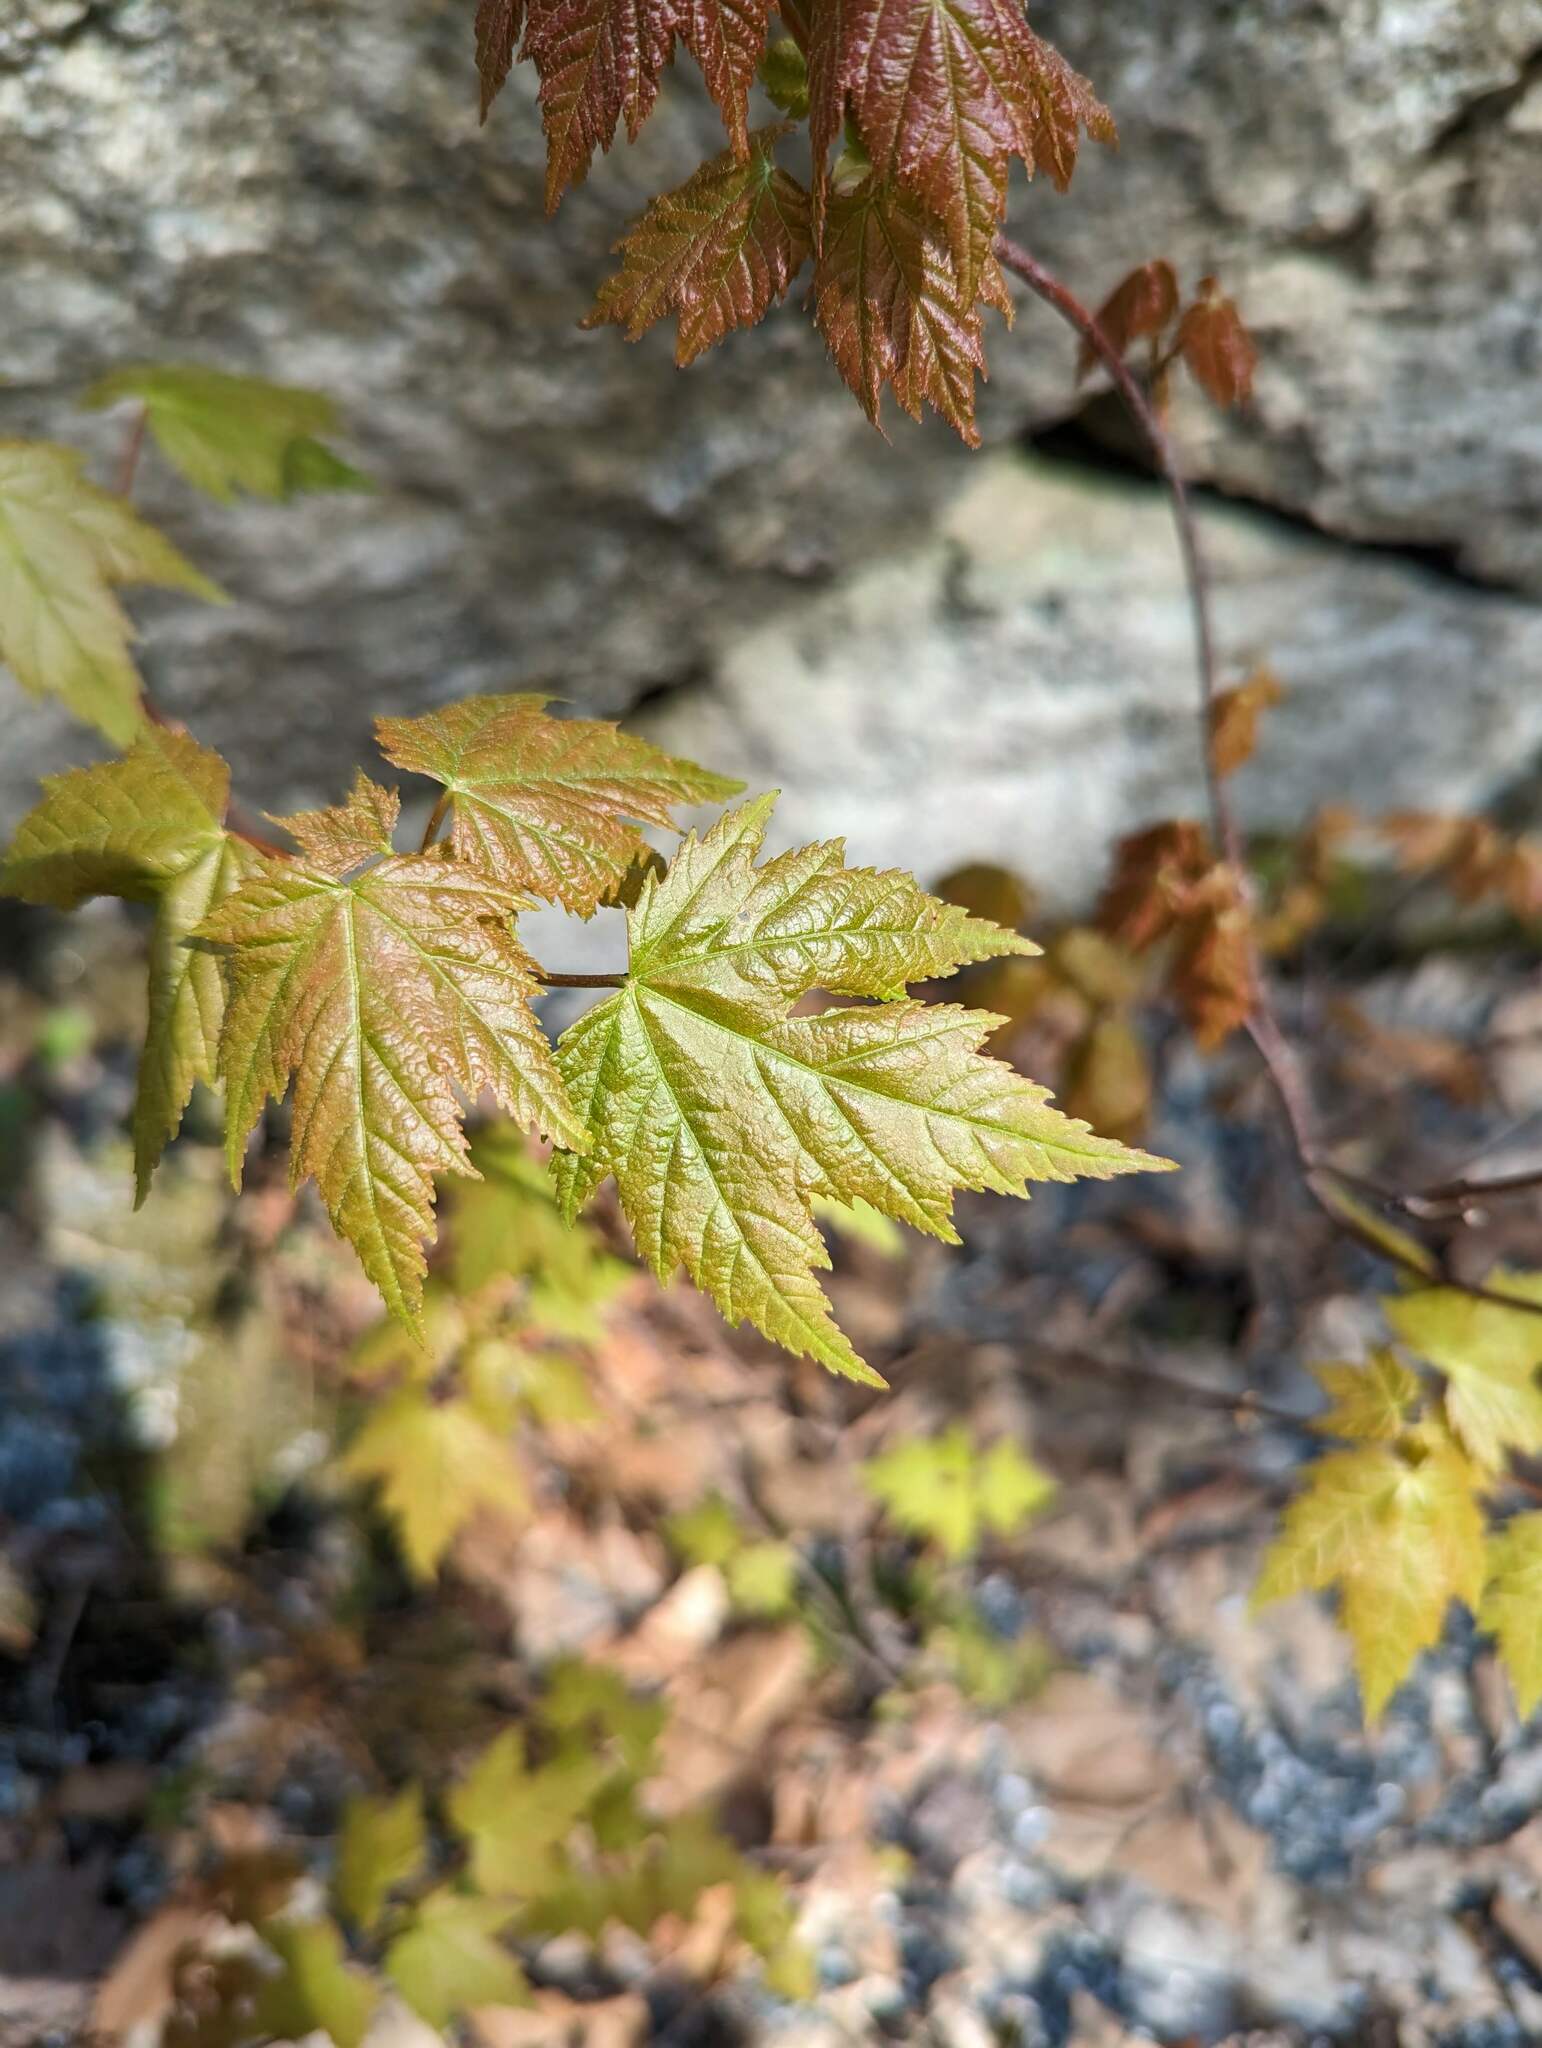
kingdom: Plantae
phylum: Tracheophyta
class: Magnoliopsida
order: Sapindales
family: Sapindaceae
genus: Acer
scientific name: Acer rubrum
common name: Red maple
